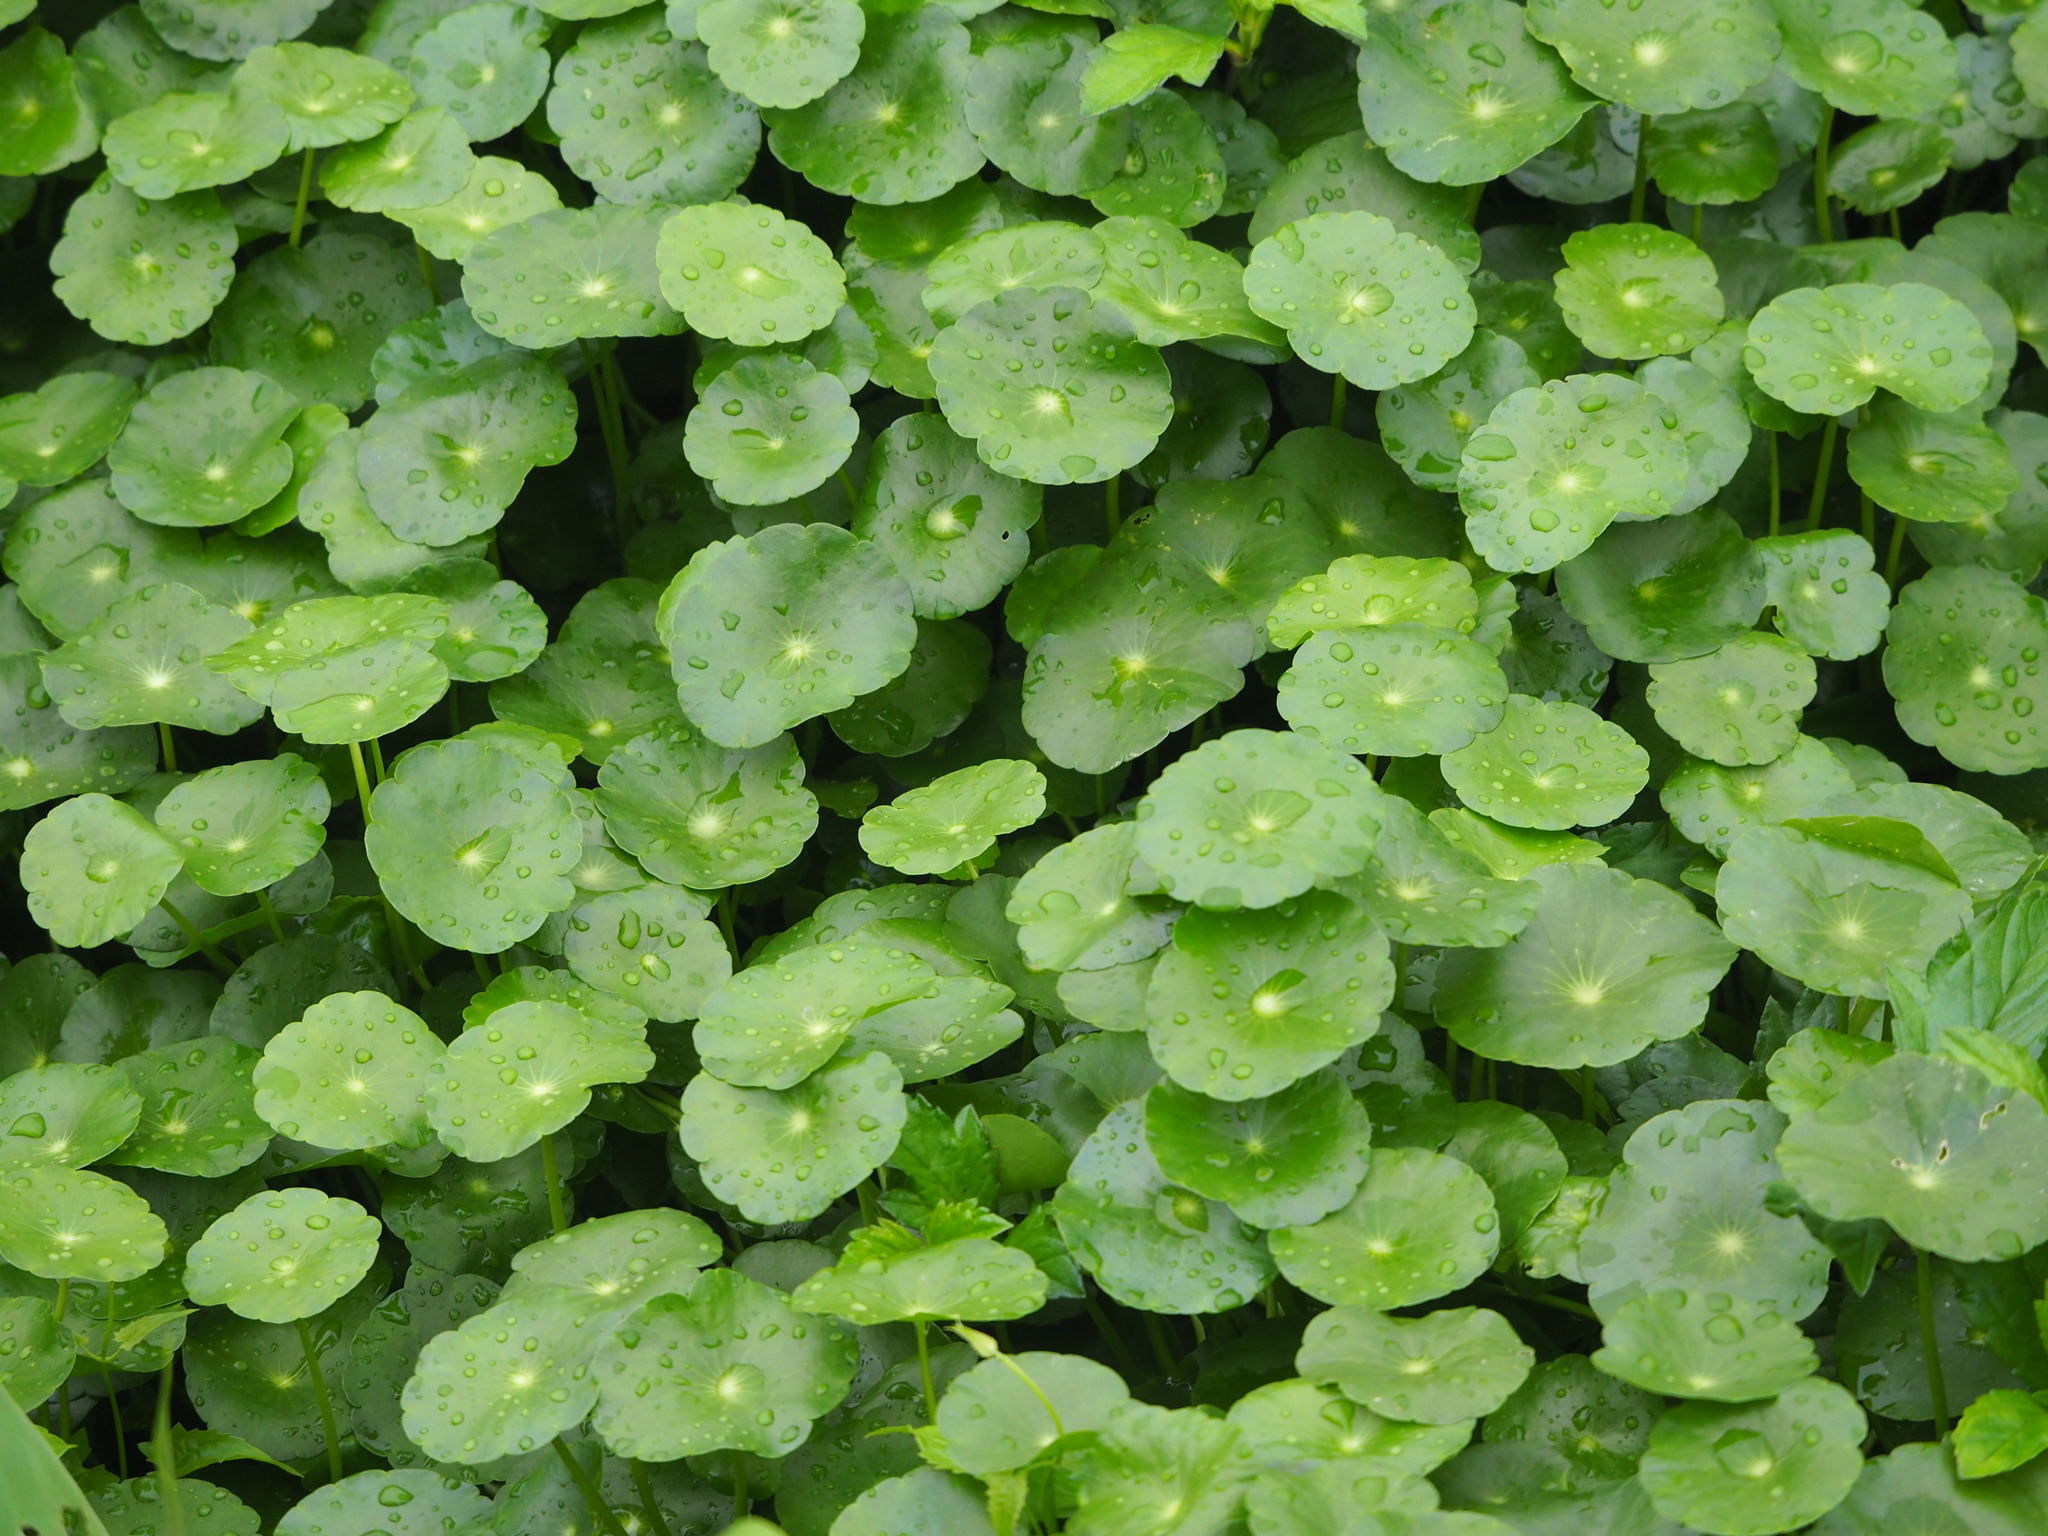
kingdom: Plantae
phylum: Tracheophyta
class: Magnoliopsida
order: Apiales
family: Araliaceae
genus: Hydrocotyle
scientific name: Hydrocotyle verticillata
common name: Whorled marshpennywort
